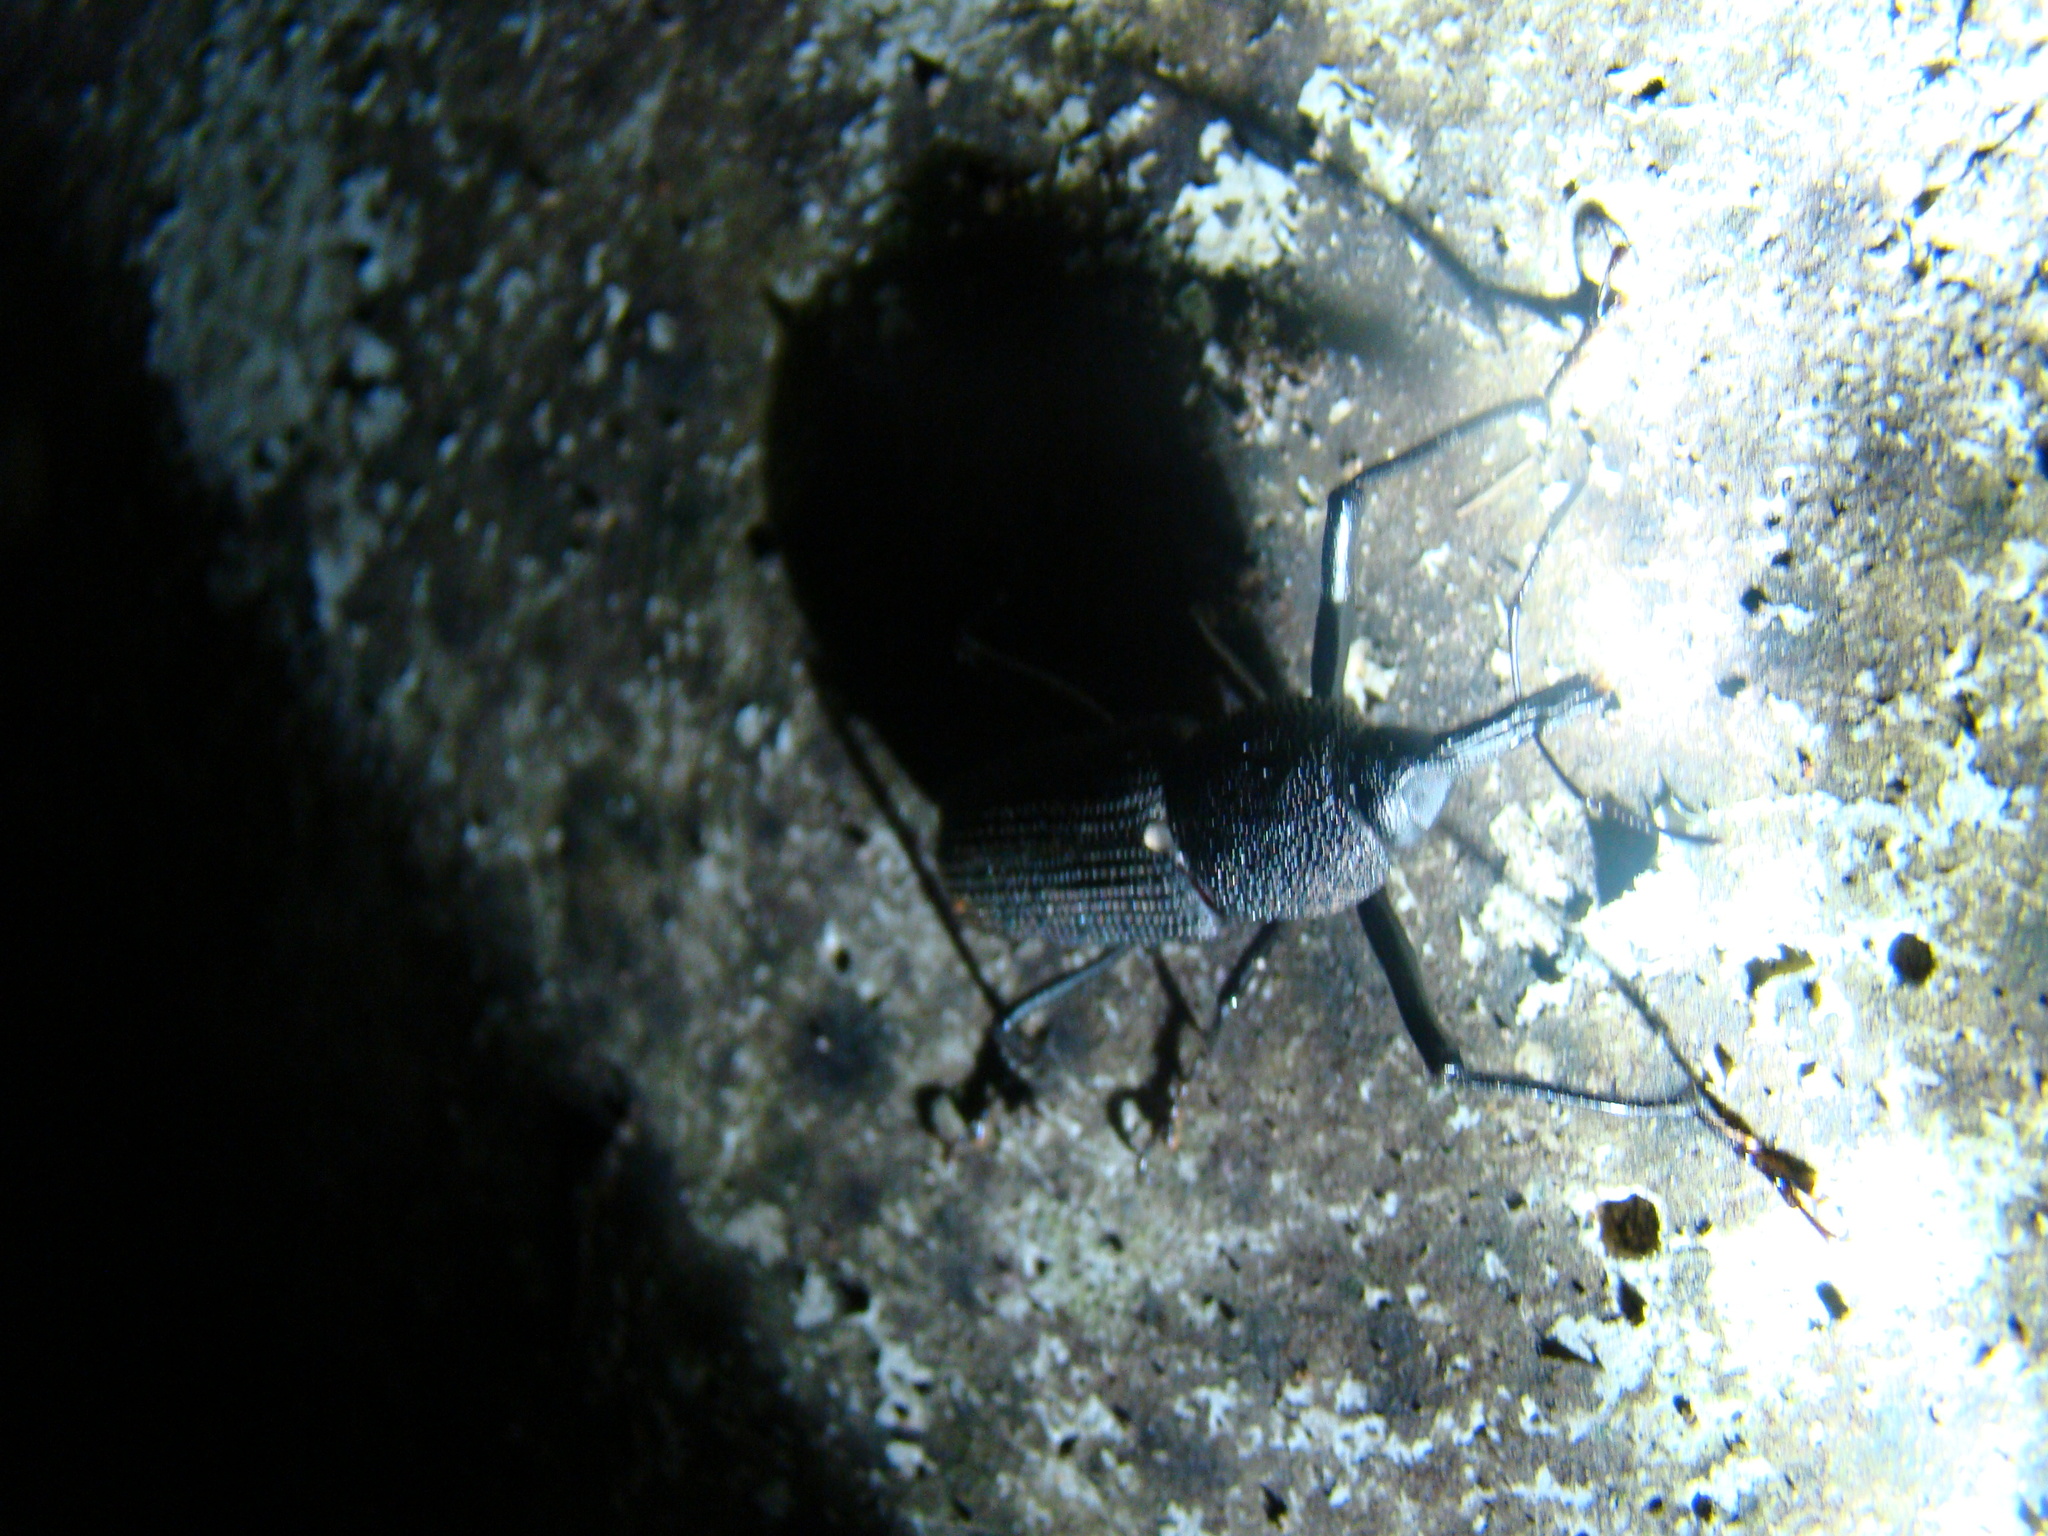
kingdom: Animalia
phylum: Arthropoda
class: Insecta
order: Coleoptera
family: Dryophthoridae
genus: Rhinostomus
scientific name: Rhinostomus barbirostris
